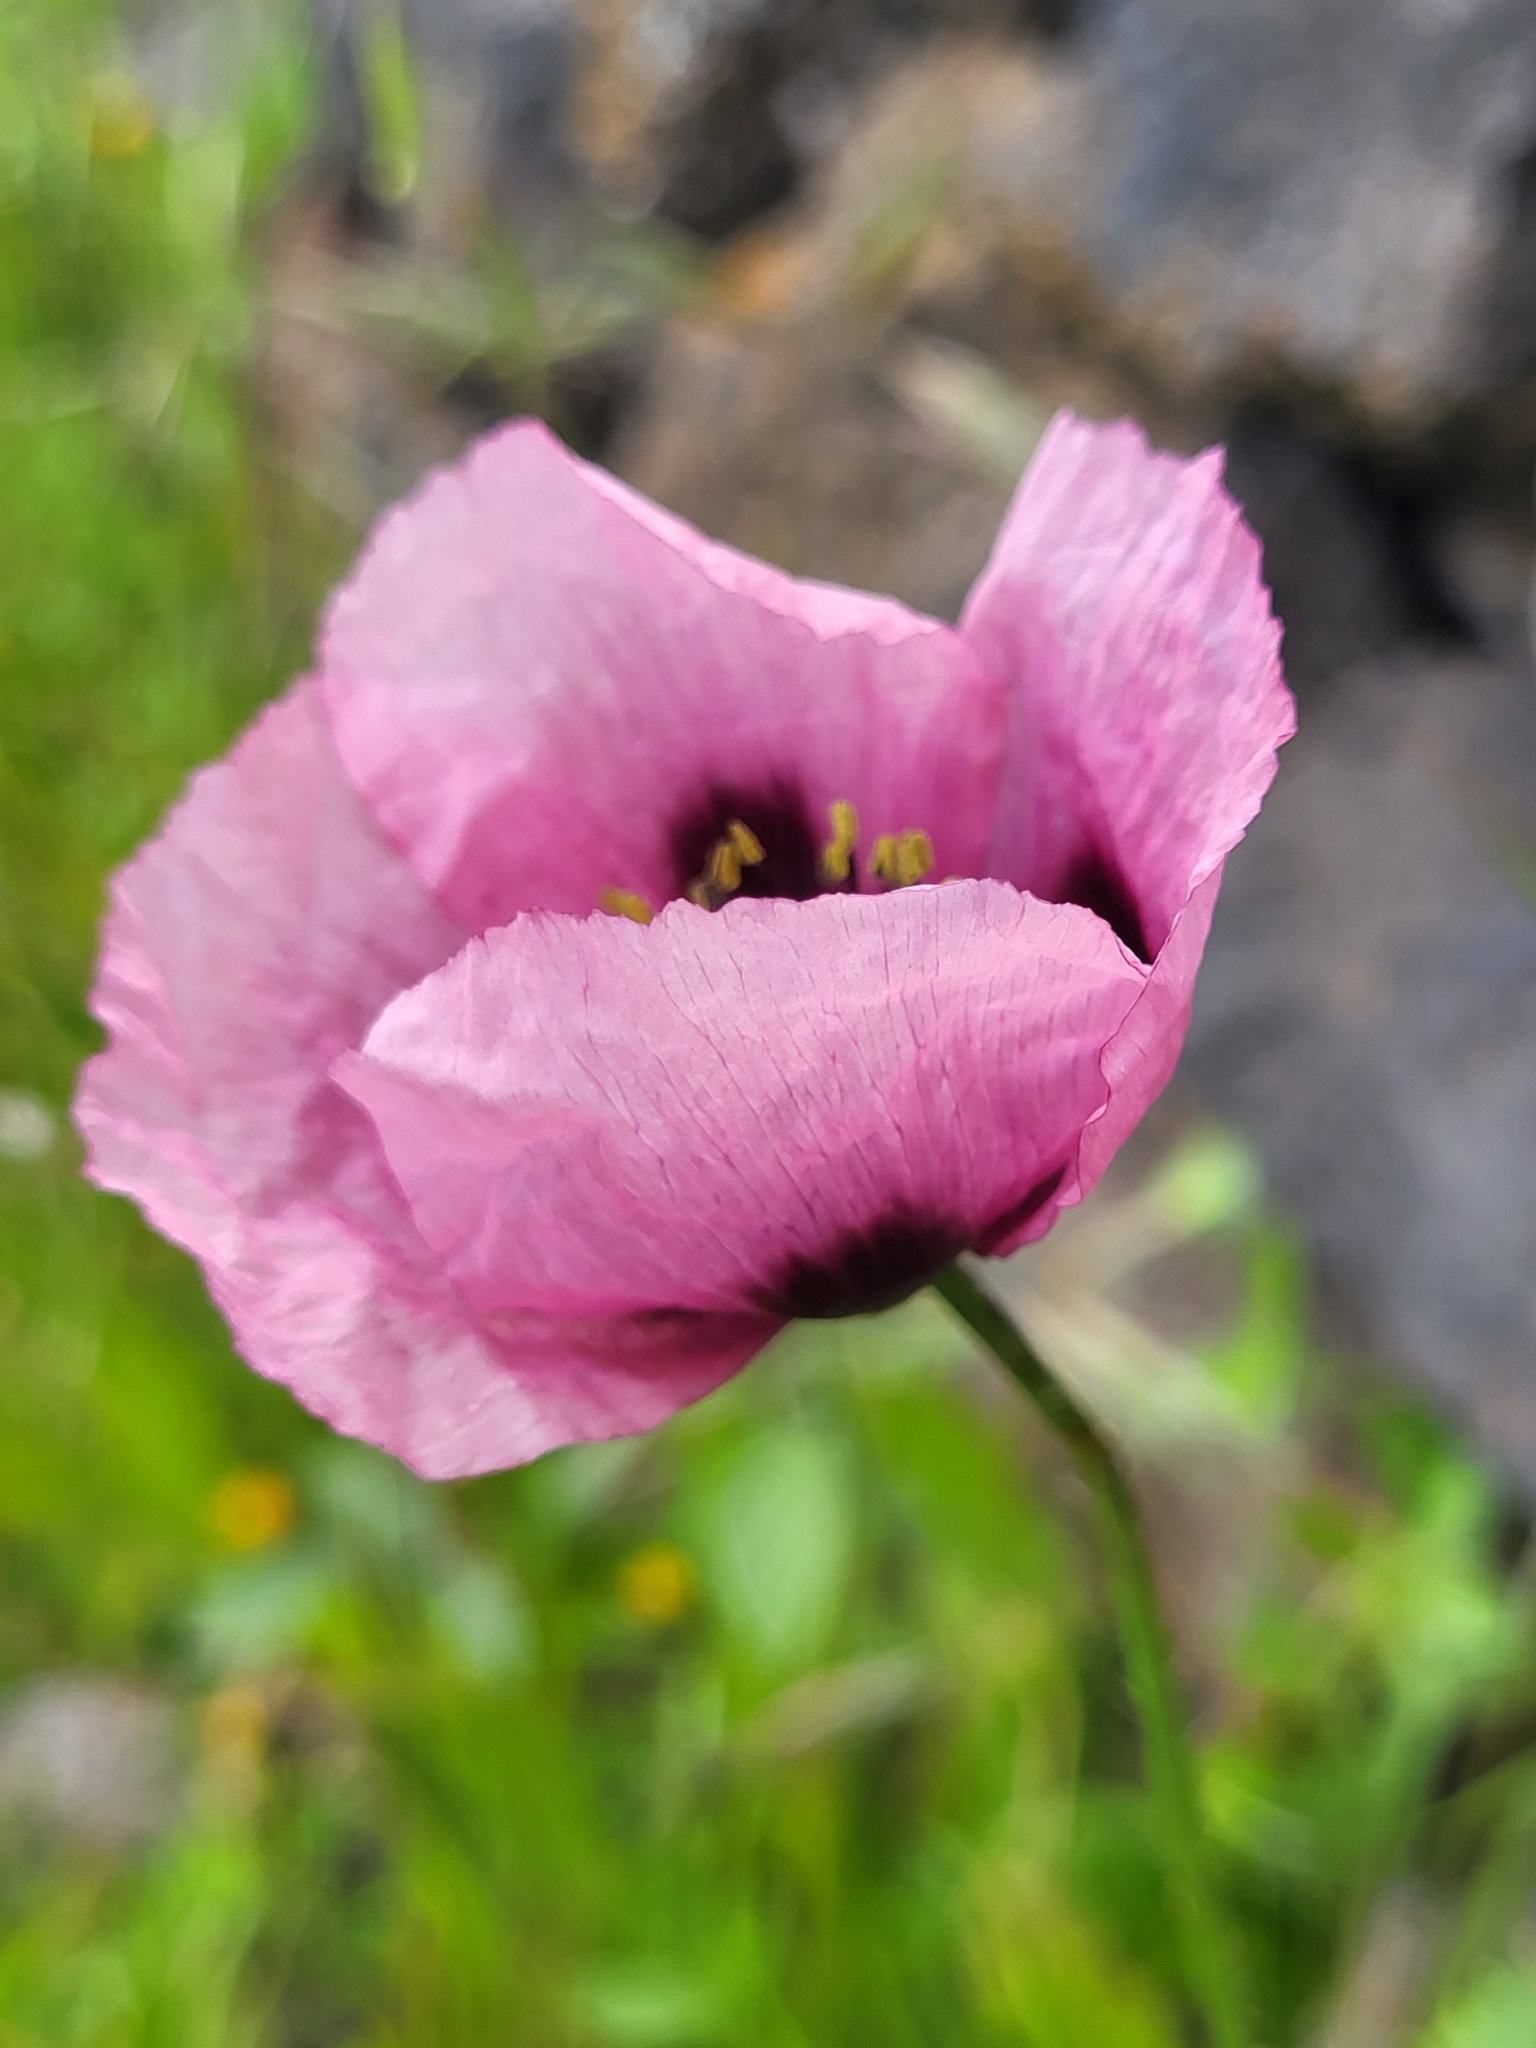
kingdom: Plantae
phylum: Tracheophyta
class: Magnoliopsida
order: Ranunculales
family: Papaveraceae
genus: Papaver
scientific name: Papaver somniferum
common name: Opium poppy
